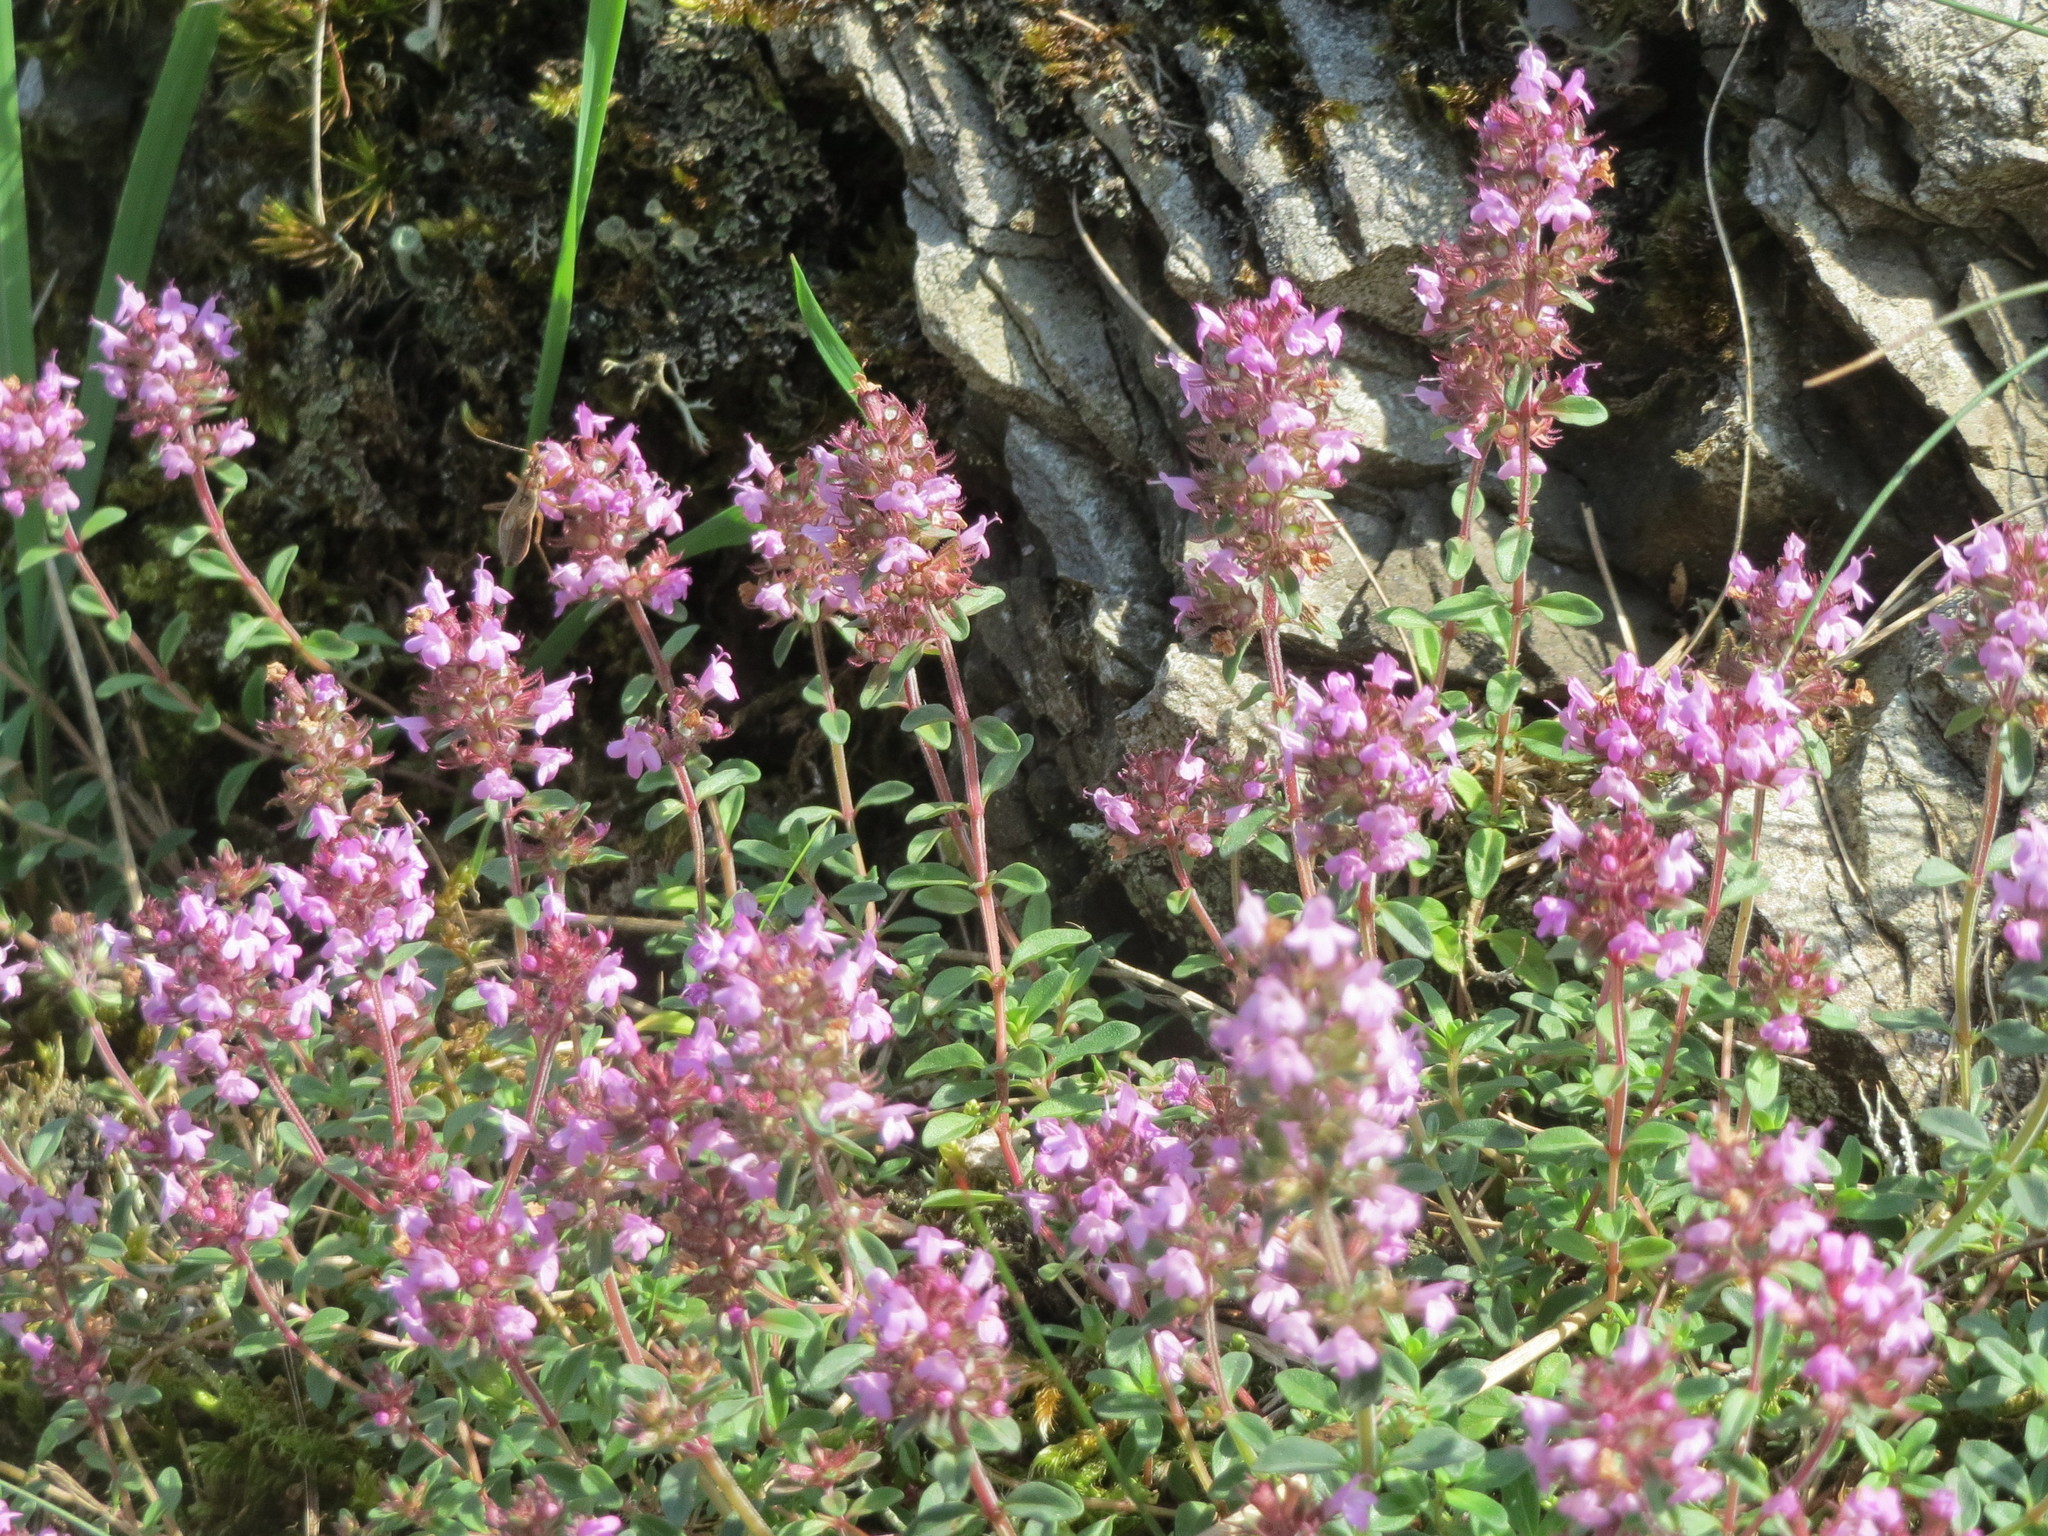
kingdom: Plantae
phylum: Tracheophyta
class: Magnoliopsida
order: Lamiales
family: Lamiaceae
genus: Thymus
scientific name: Thymus pulegioides
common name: Large thyme
